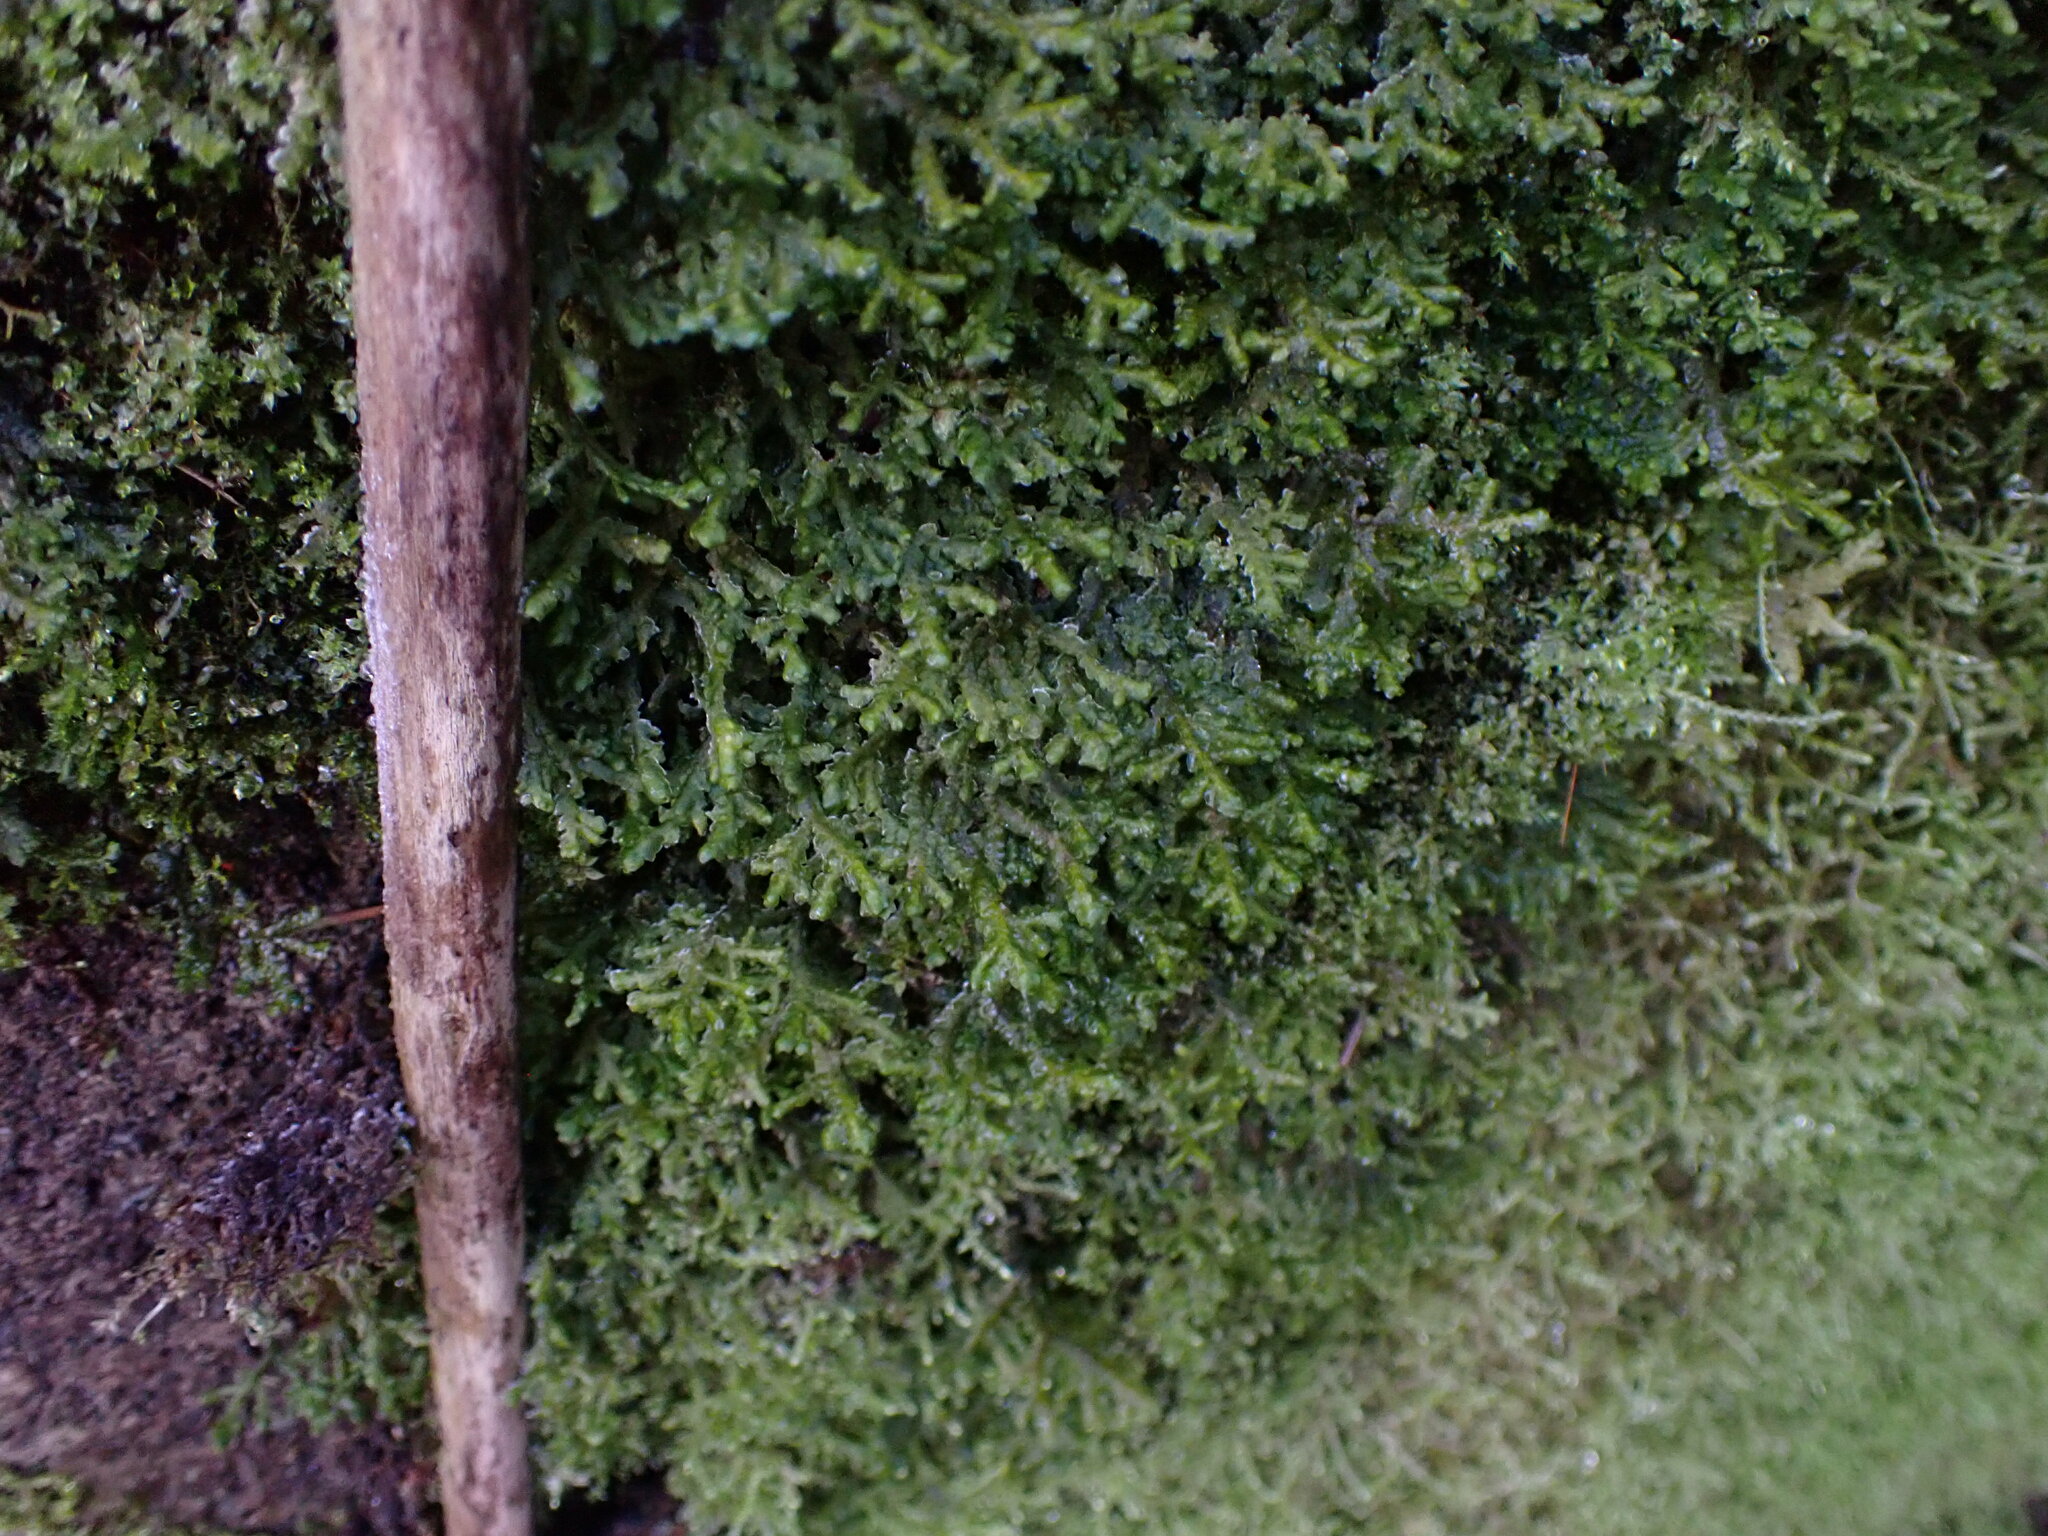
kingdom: Plantae
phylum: Marchantiophyta
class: Jungermanniopsida
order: Porellales
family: Porellaceae
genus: Porella
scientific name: Porella cordaeana
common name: Cliff scalewort
